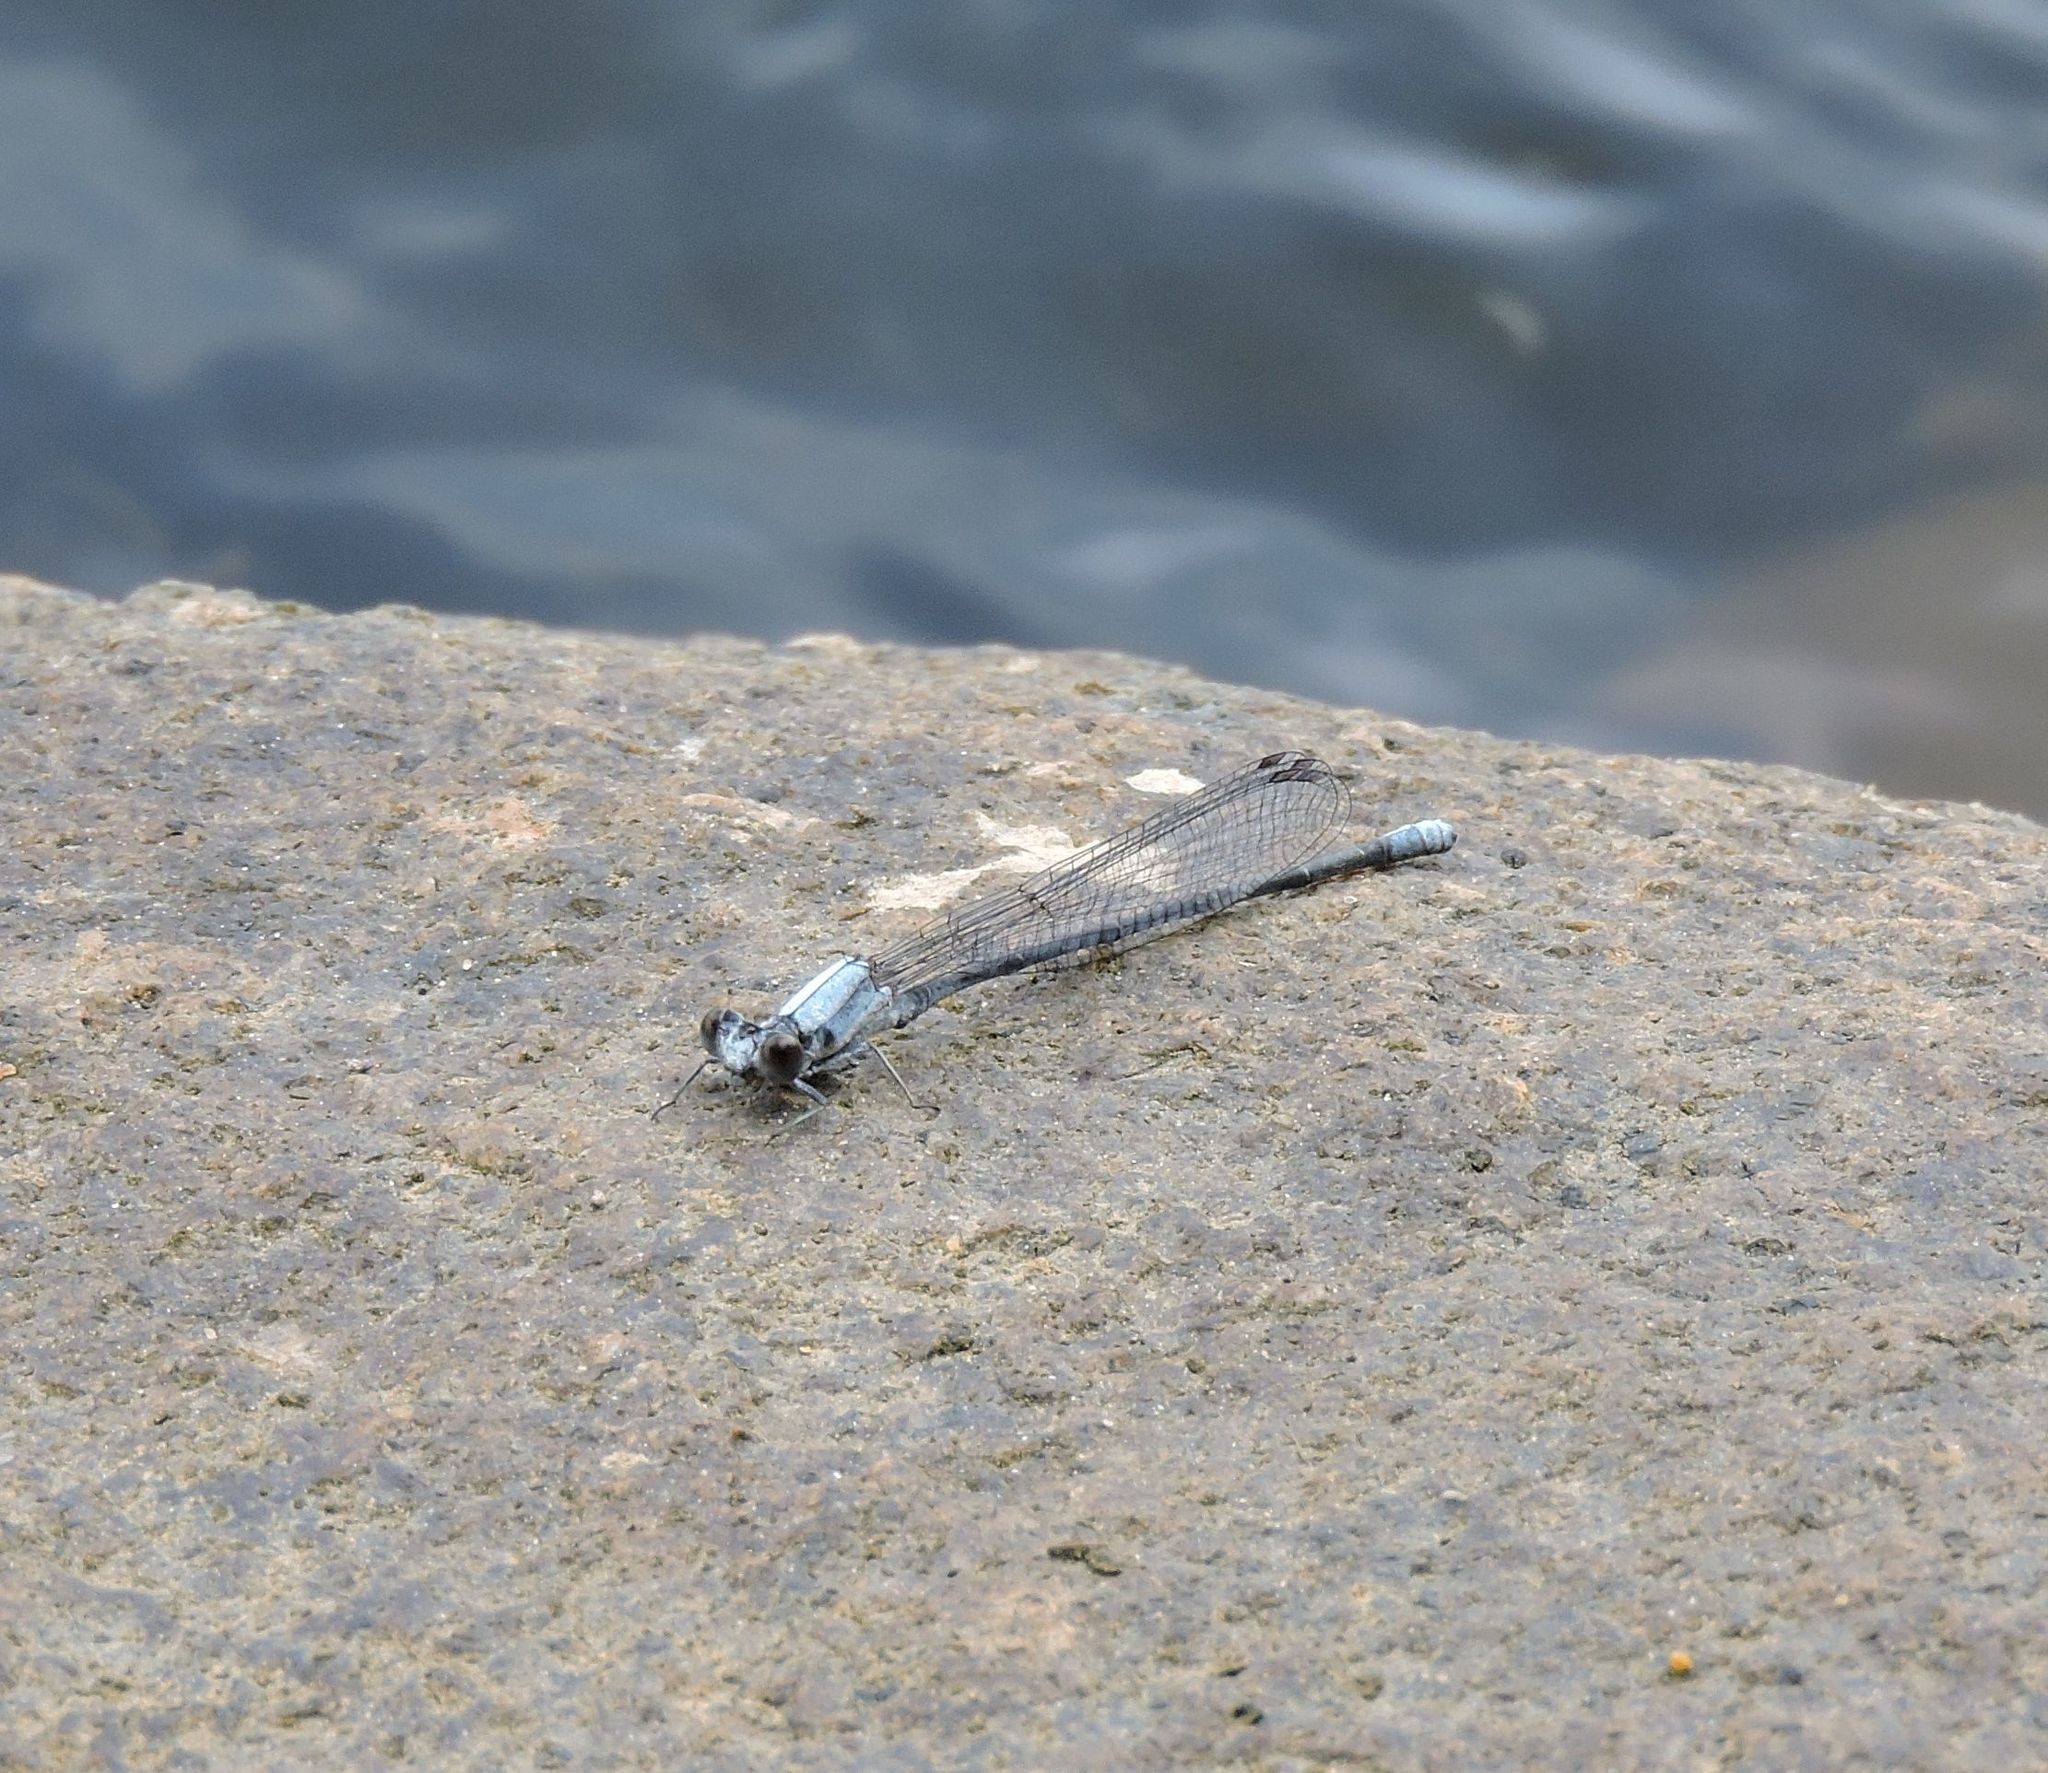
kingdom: Animalia
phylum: Arthropoda
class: Insecta
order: Odonata
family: Coenagrionidae
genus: Argia
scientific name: Argia moesta
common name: Powdered dancer
